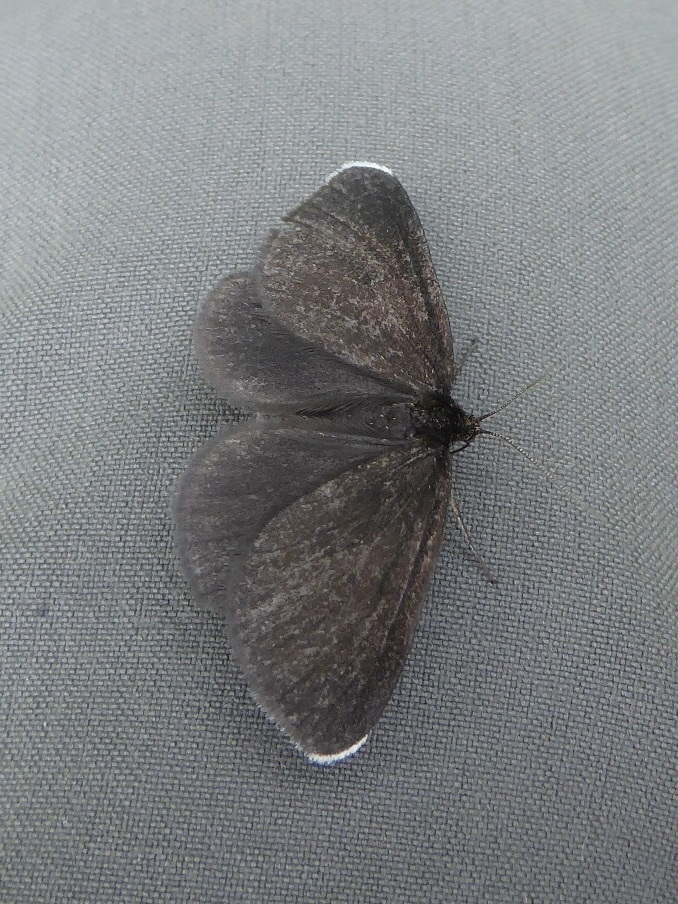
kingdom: Animalia
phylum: Arthropoda
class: Insecta
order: Lepidoptera
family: Geometridae
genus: Odezia
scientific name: Odezia atrata
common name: Chimney sweeper
